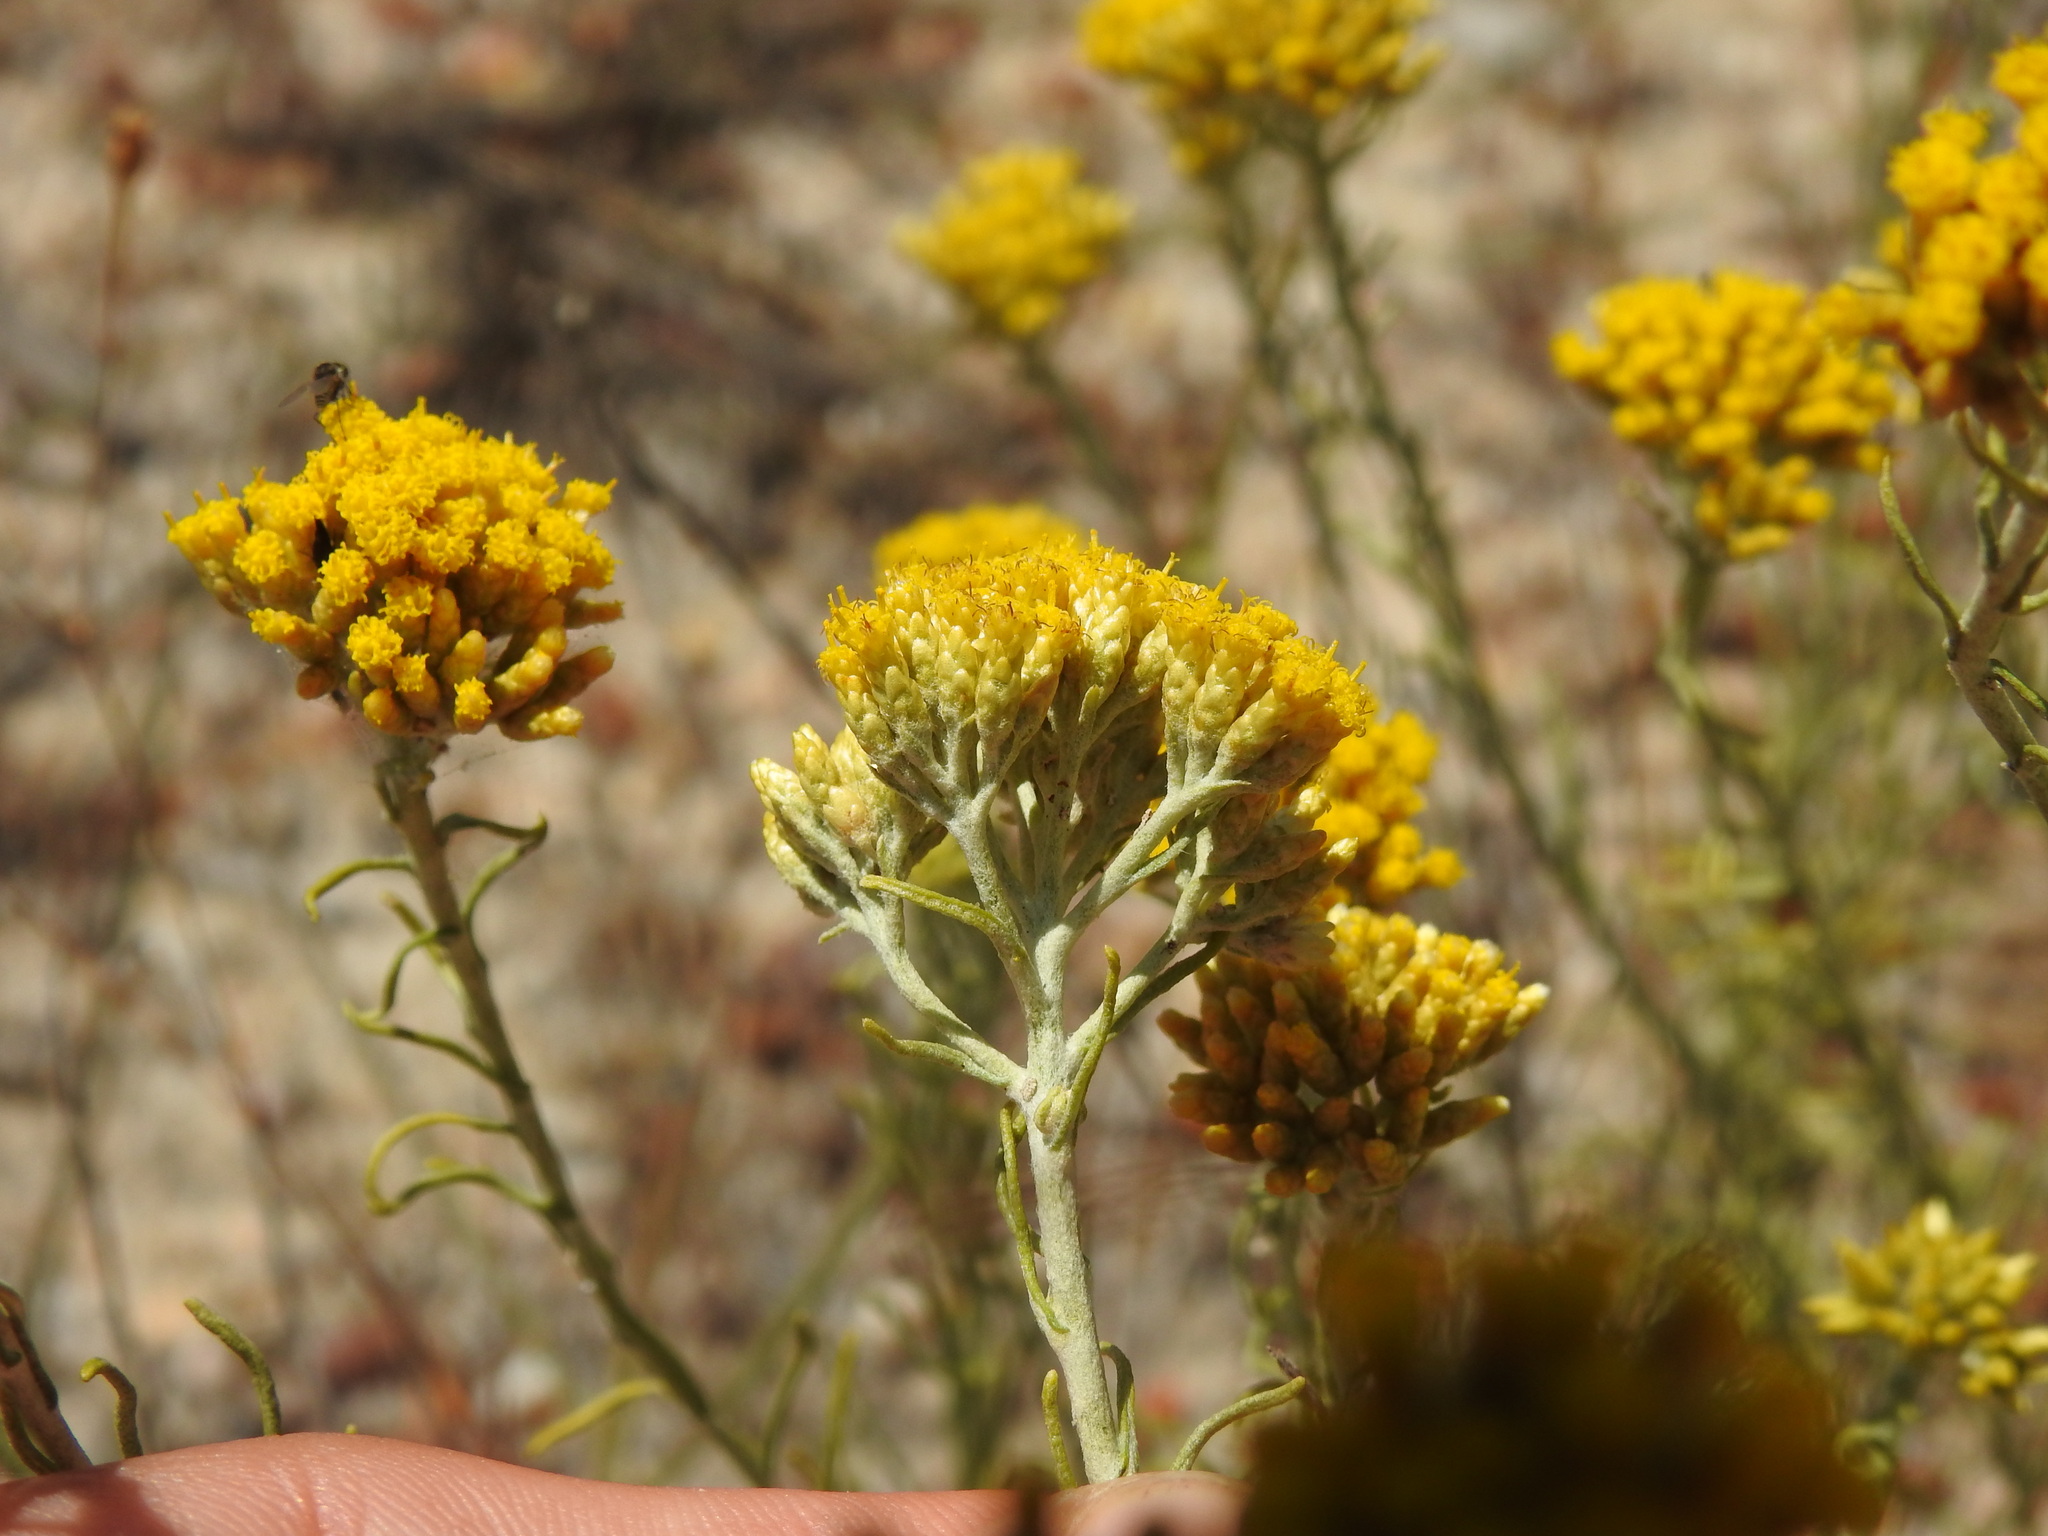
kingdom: Plantae
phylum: Tracheophyta
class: Magnoliopsida
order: Asterales
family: Asteraceae
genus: Helichrysum
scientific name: Helichrysum serotinum
